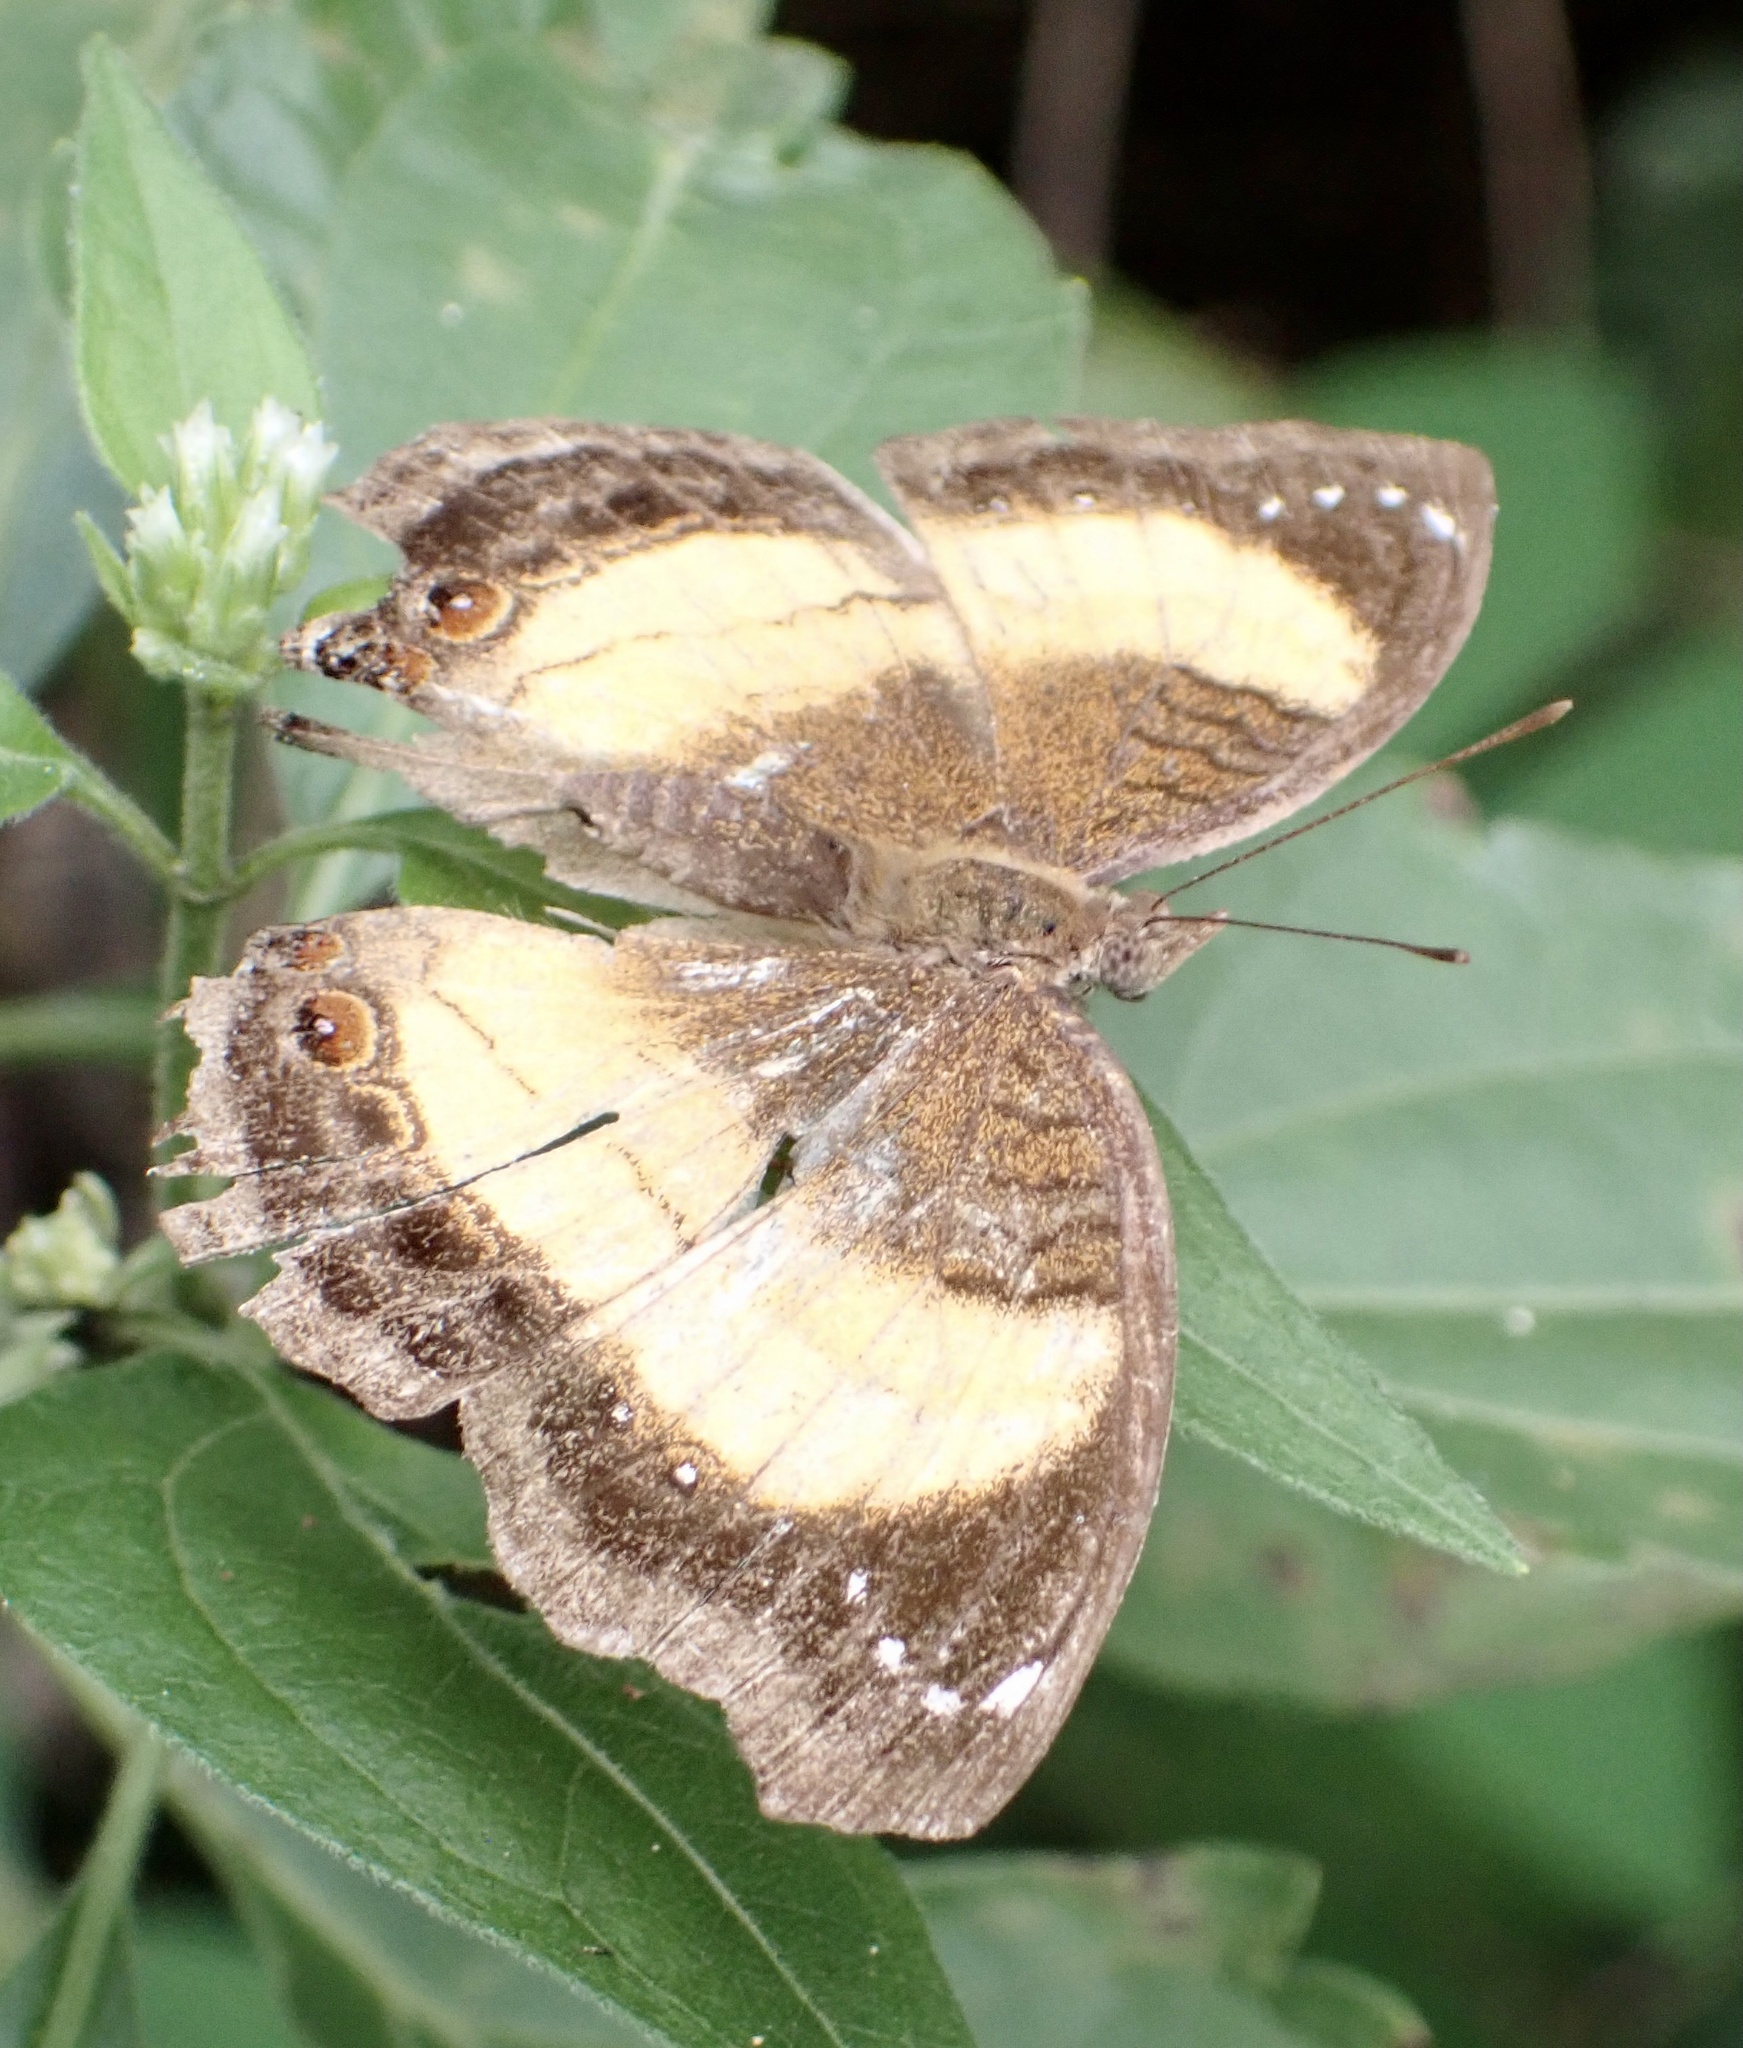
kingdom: Animalia
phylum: Arthropoda
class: Insecta
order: Lepidoptera
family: Nymphalidae
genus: Junonia
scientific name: Junonia terea
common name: Soldier pansy
